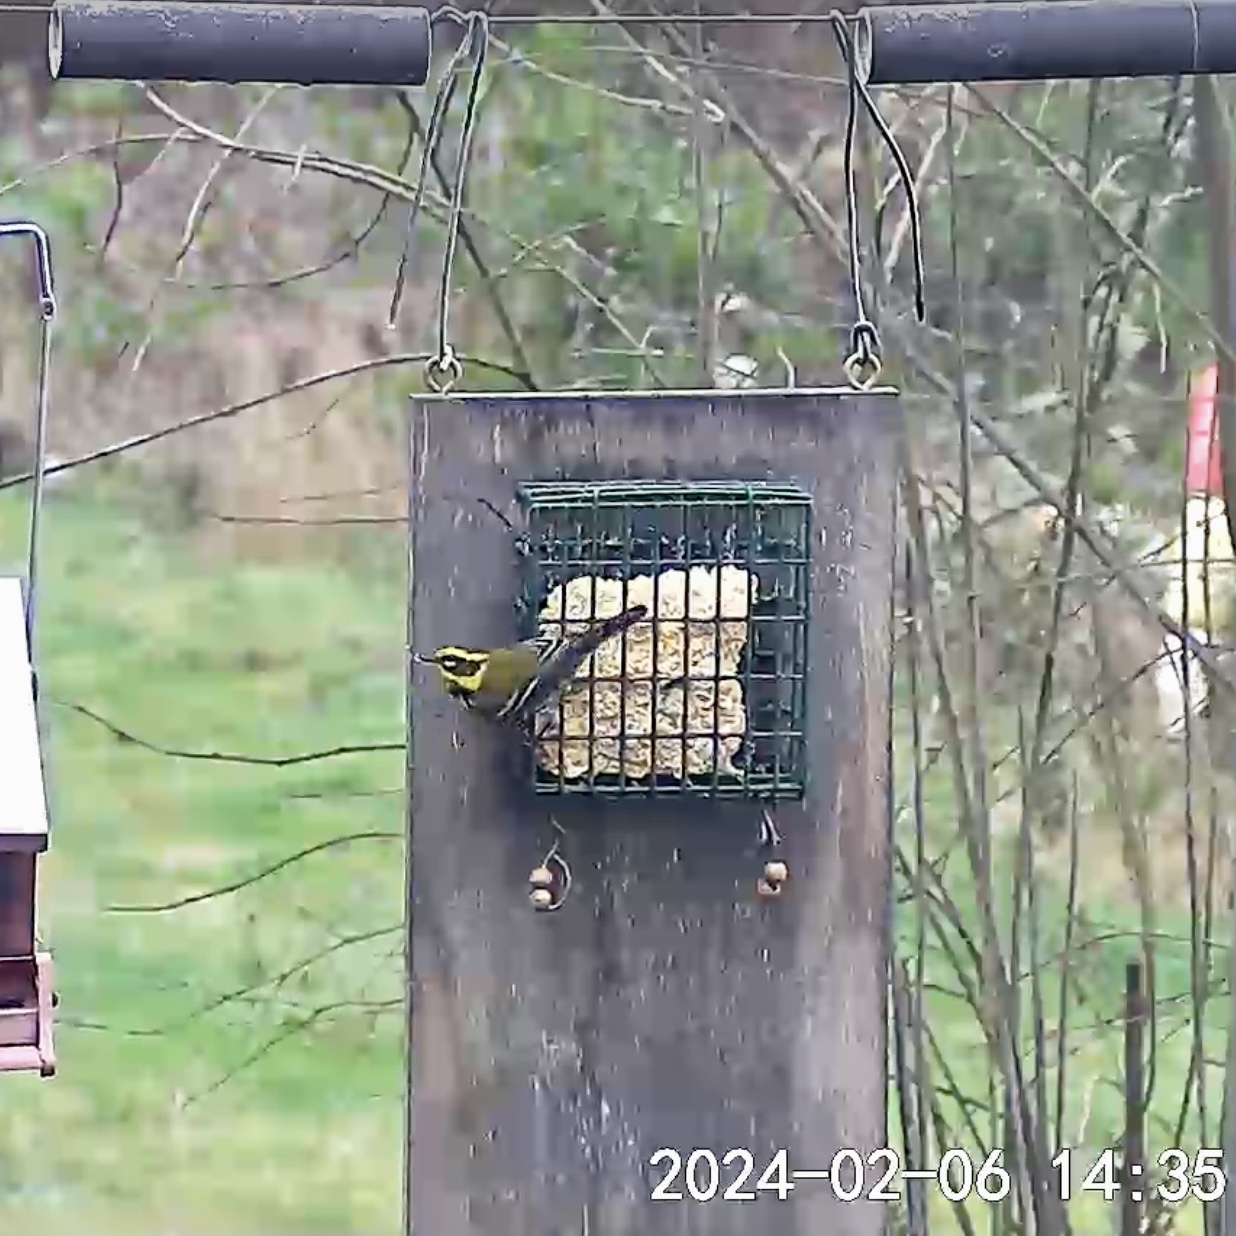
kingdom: Animalia
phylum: Chordata
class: Aves
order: Passeriformes
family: Parulidae
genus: Setophaga
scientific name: Setophaga townsendi
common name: Townsend's warbler
